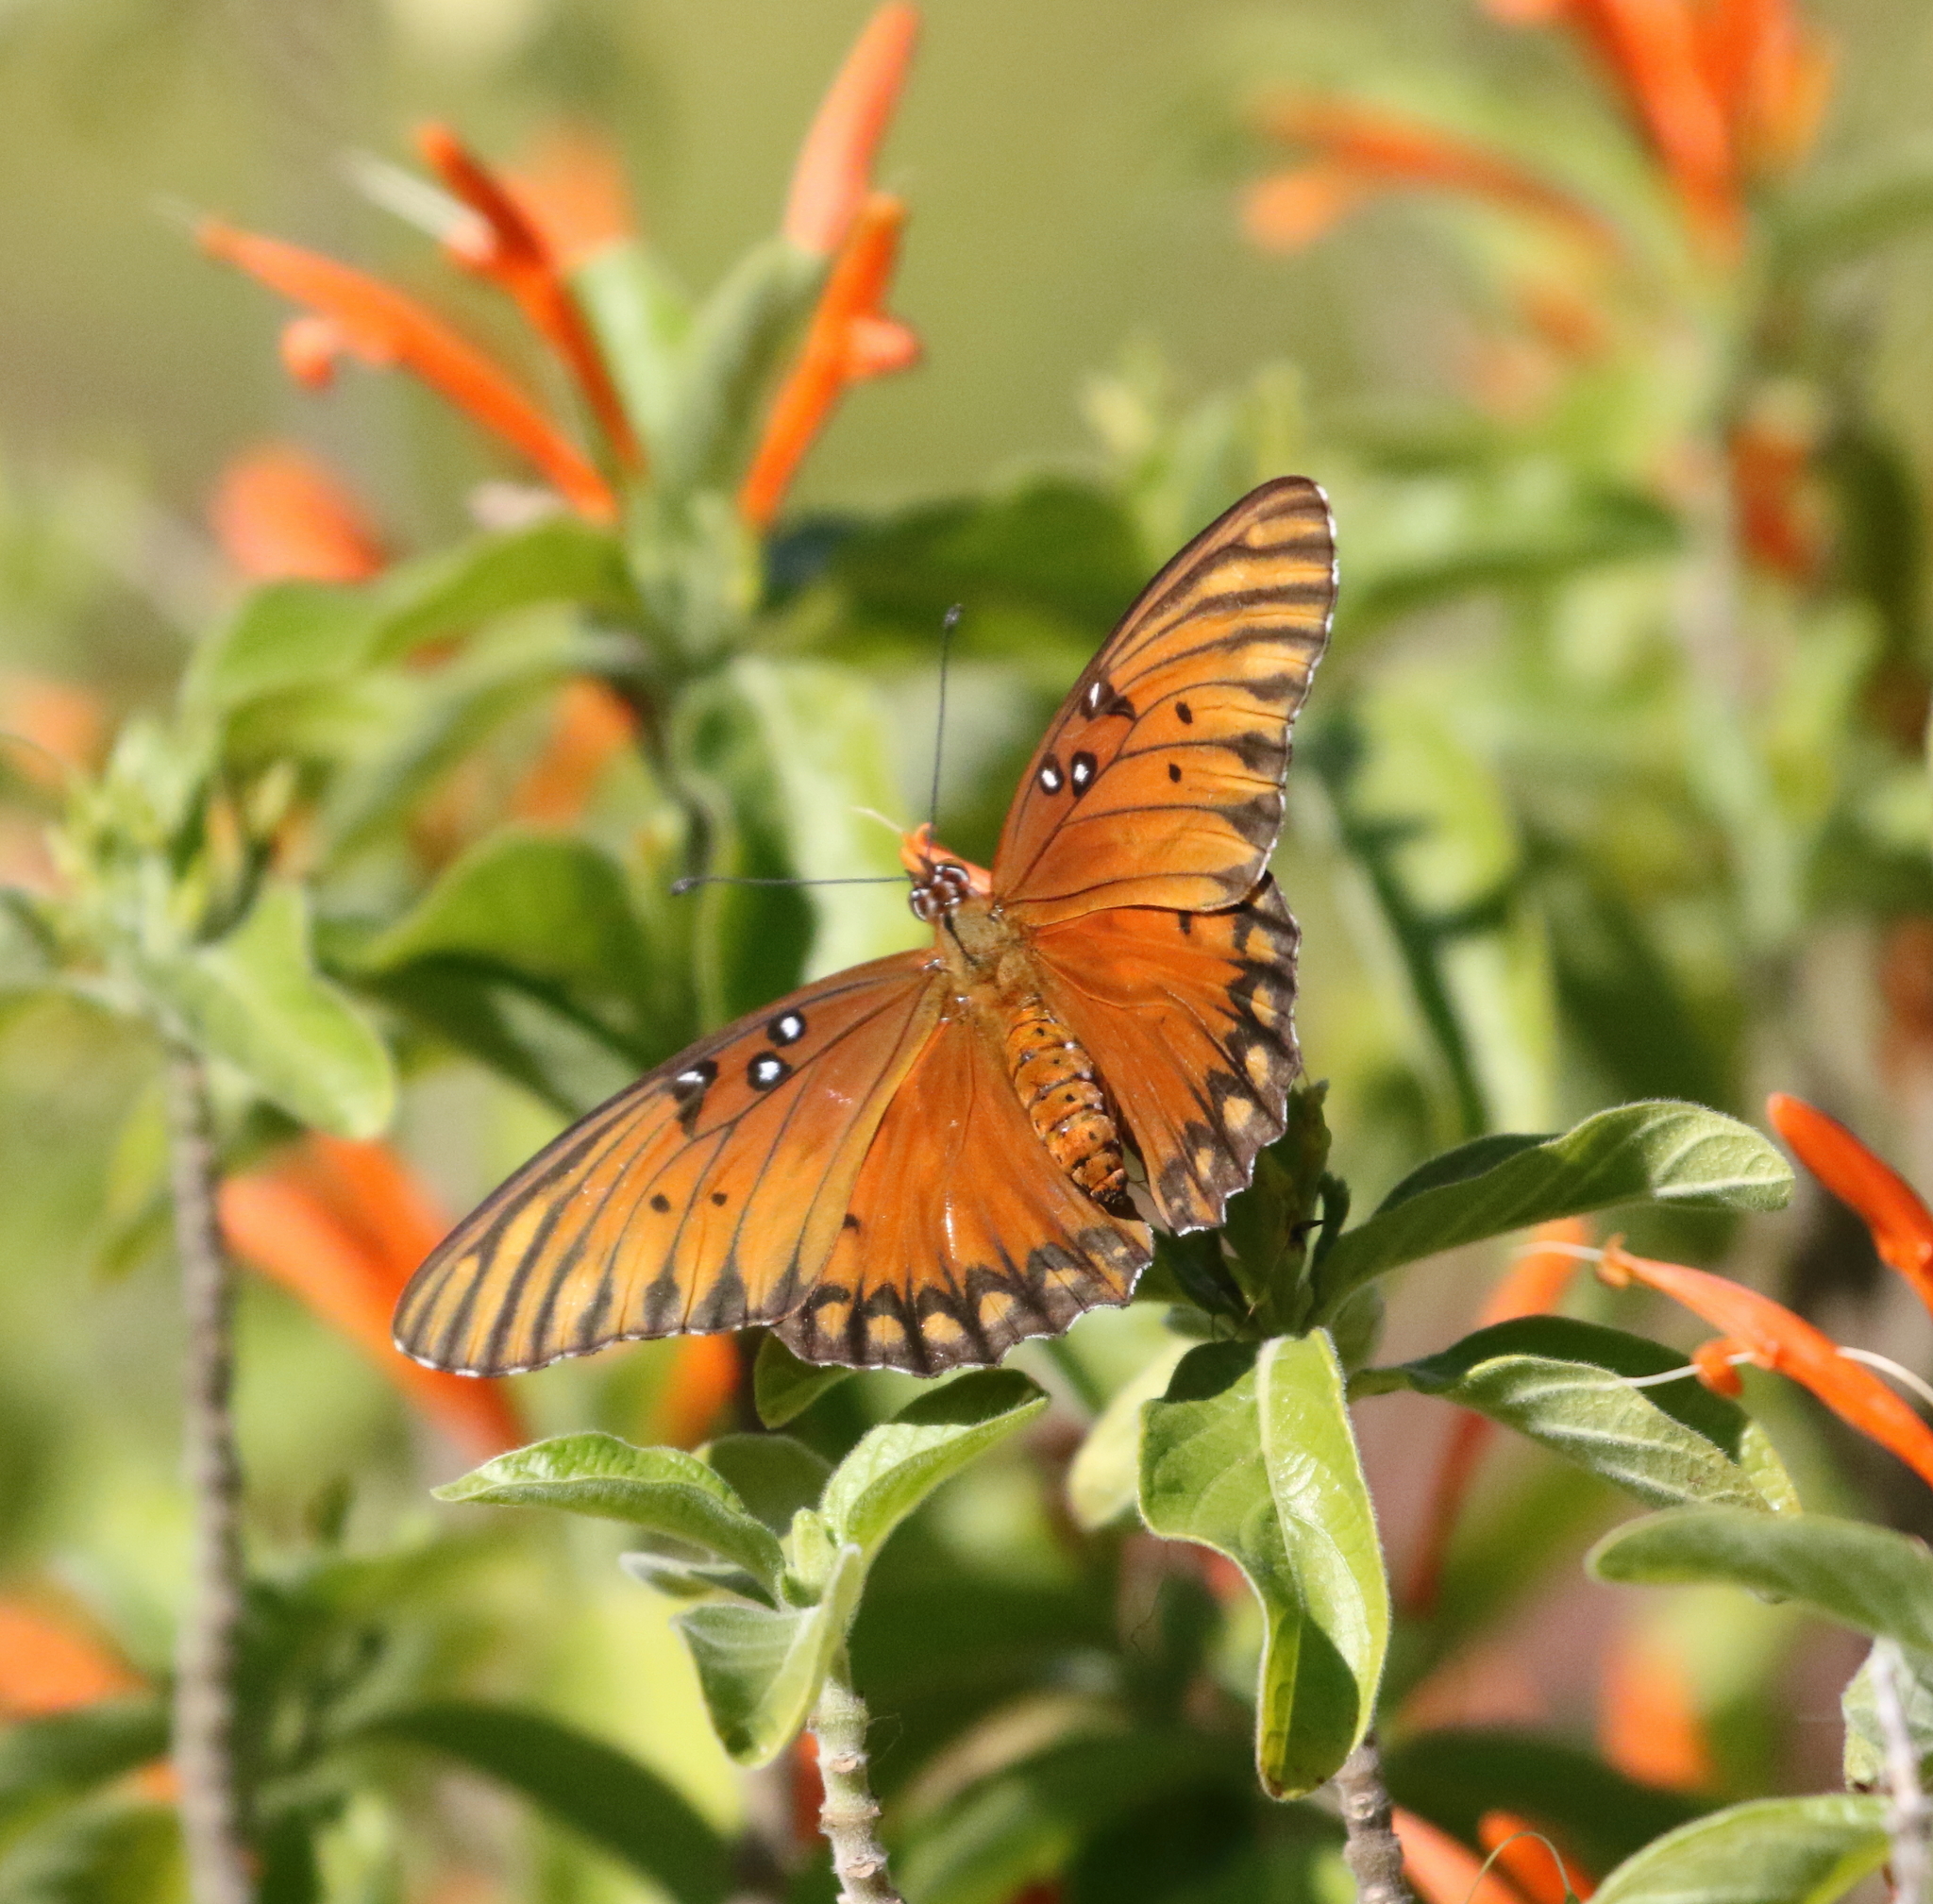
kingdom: Animalia
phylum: Arthropoda
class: Insecta
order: Lepidoptera
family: Nymphalidae
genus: Dione
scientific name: Dione vanillae
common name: Gulf fritillary
